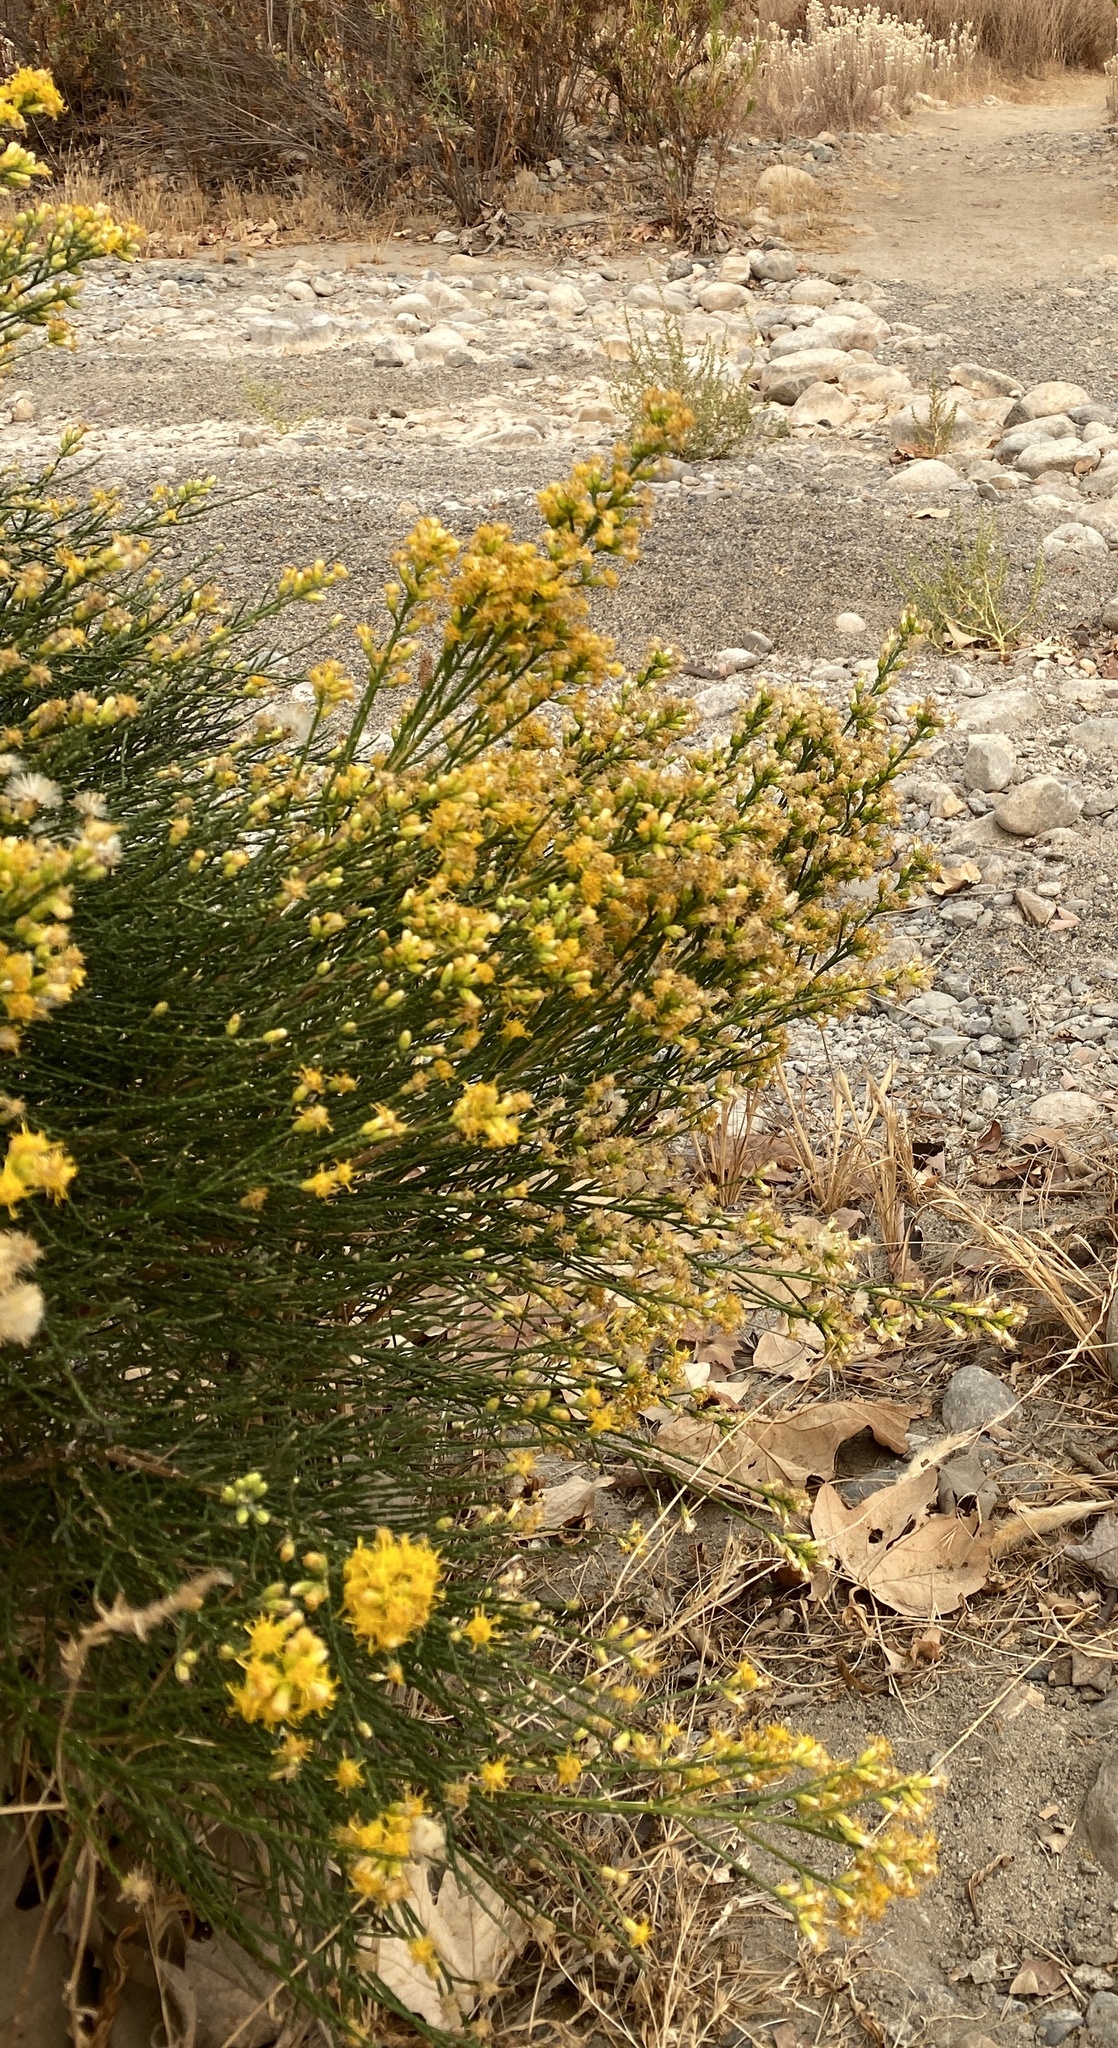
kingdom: Plantae
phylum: Tracheophyta
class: Magnoliopsida
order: Asterales
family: Asteraceae
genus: Lepidospartum
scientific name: Lepidospartum squamatum
